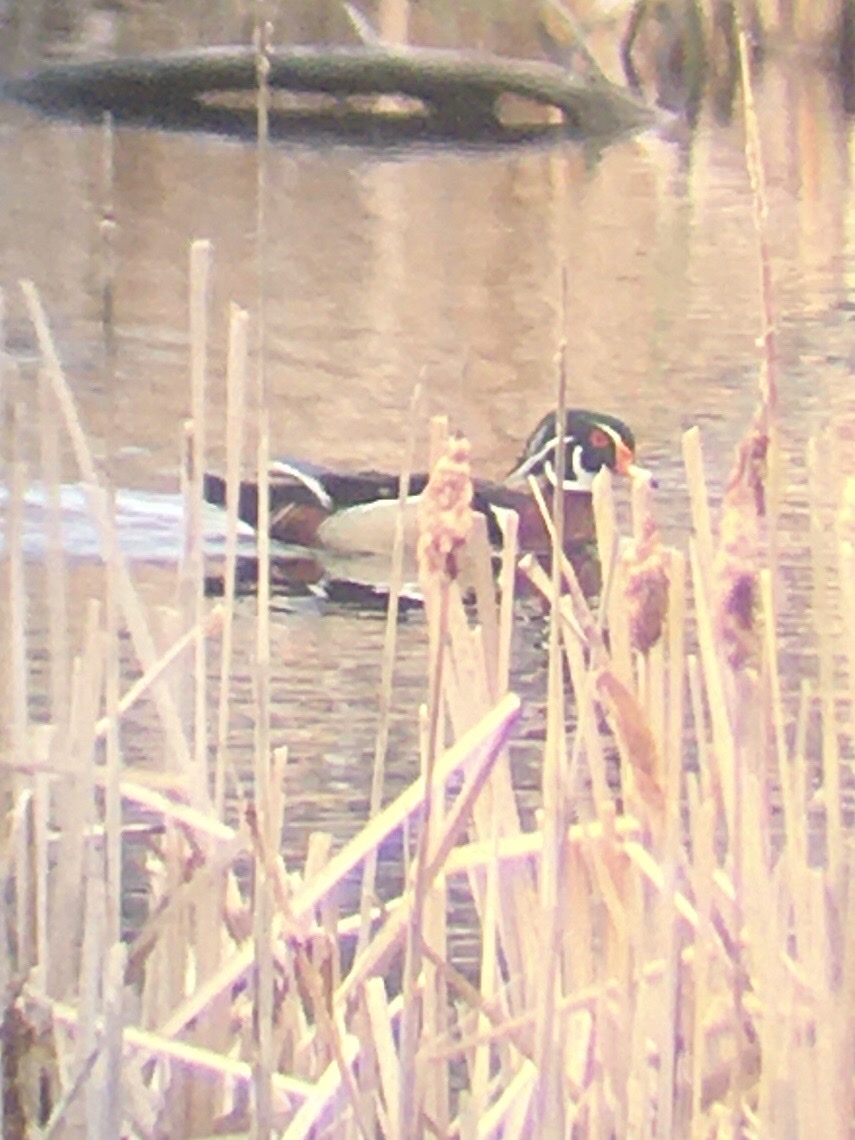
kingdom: Animalia
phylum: Chordata
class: Aves
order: Anseriformes
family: Anatidae
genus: Aix
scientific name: Aix sponsa
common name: Wood duck
